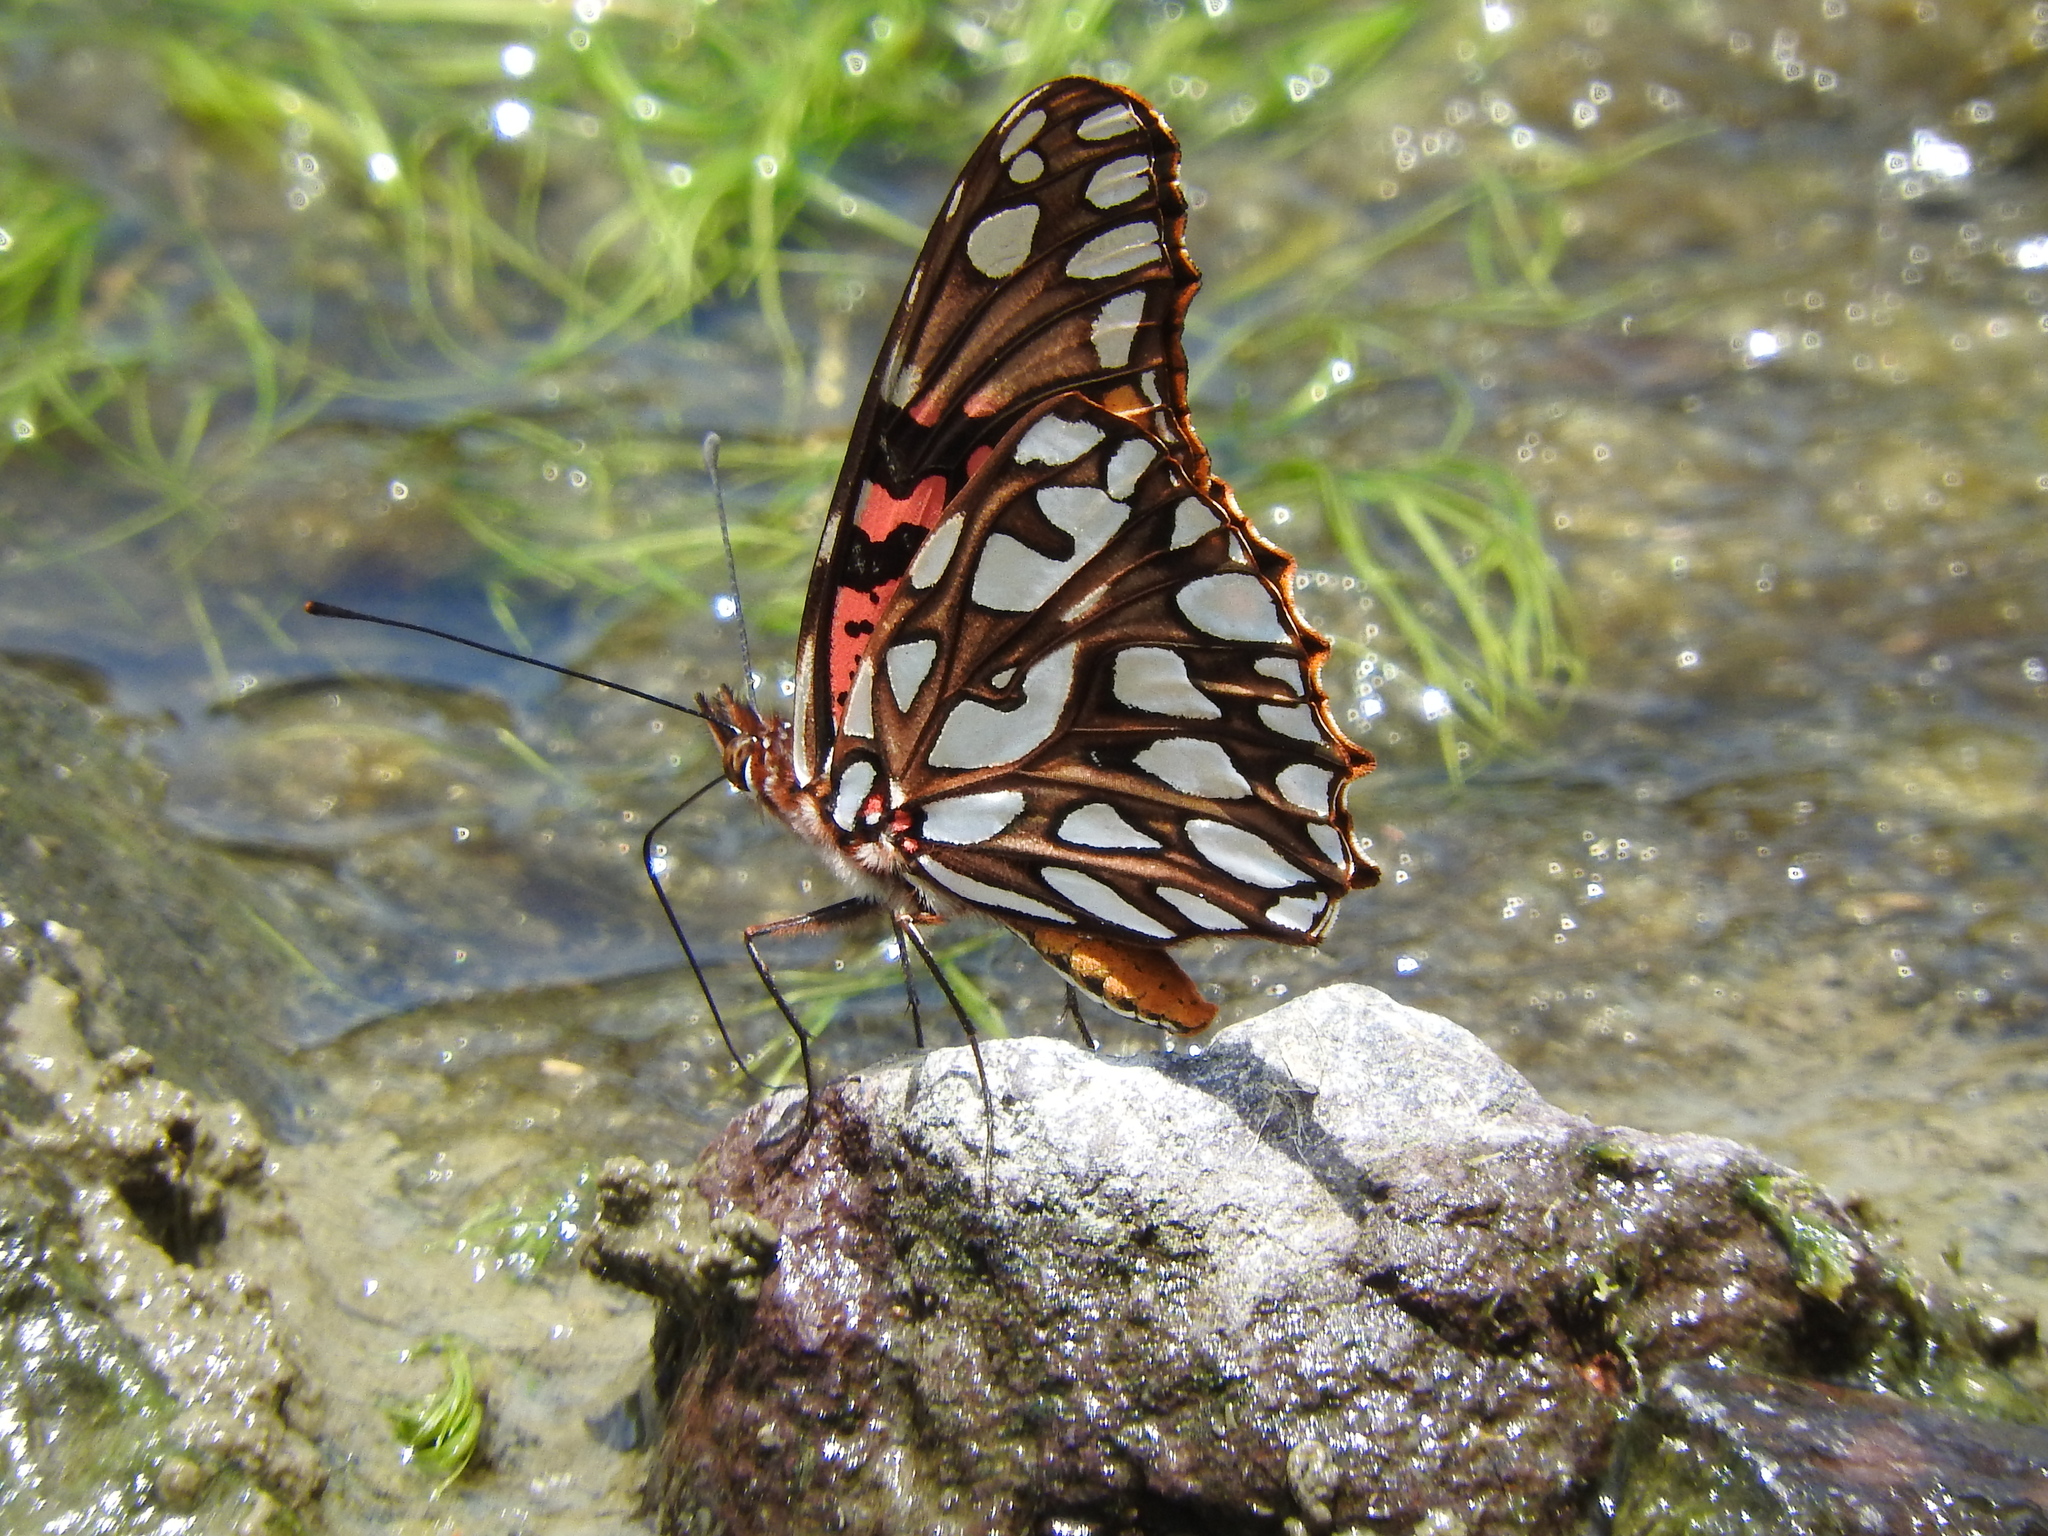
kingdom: Animalia
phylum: Arthropoda
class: Insecta
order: Lepidoptera
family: Nymphalidae
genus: Dione
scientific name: Dione moneta
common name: Mexican silverspot
